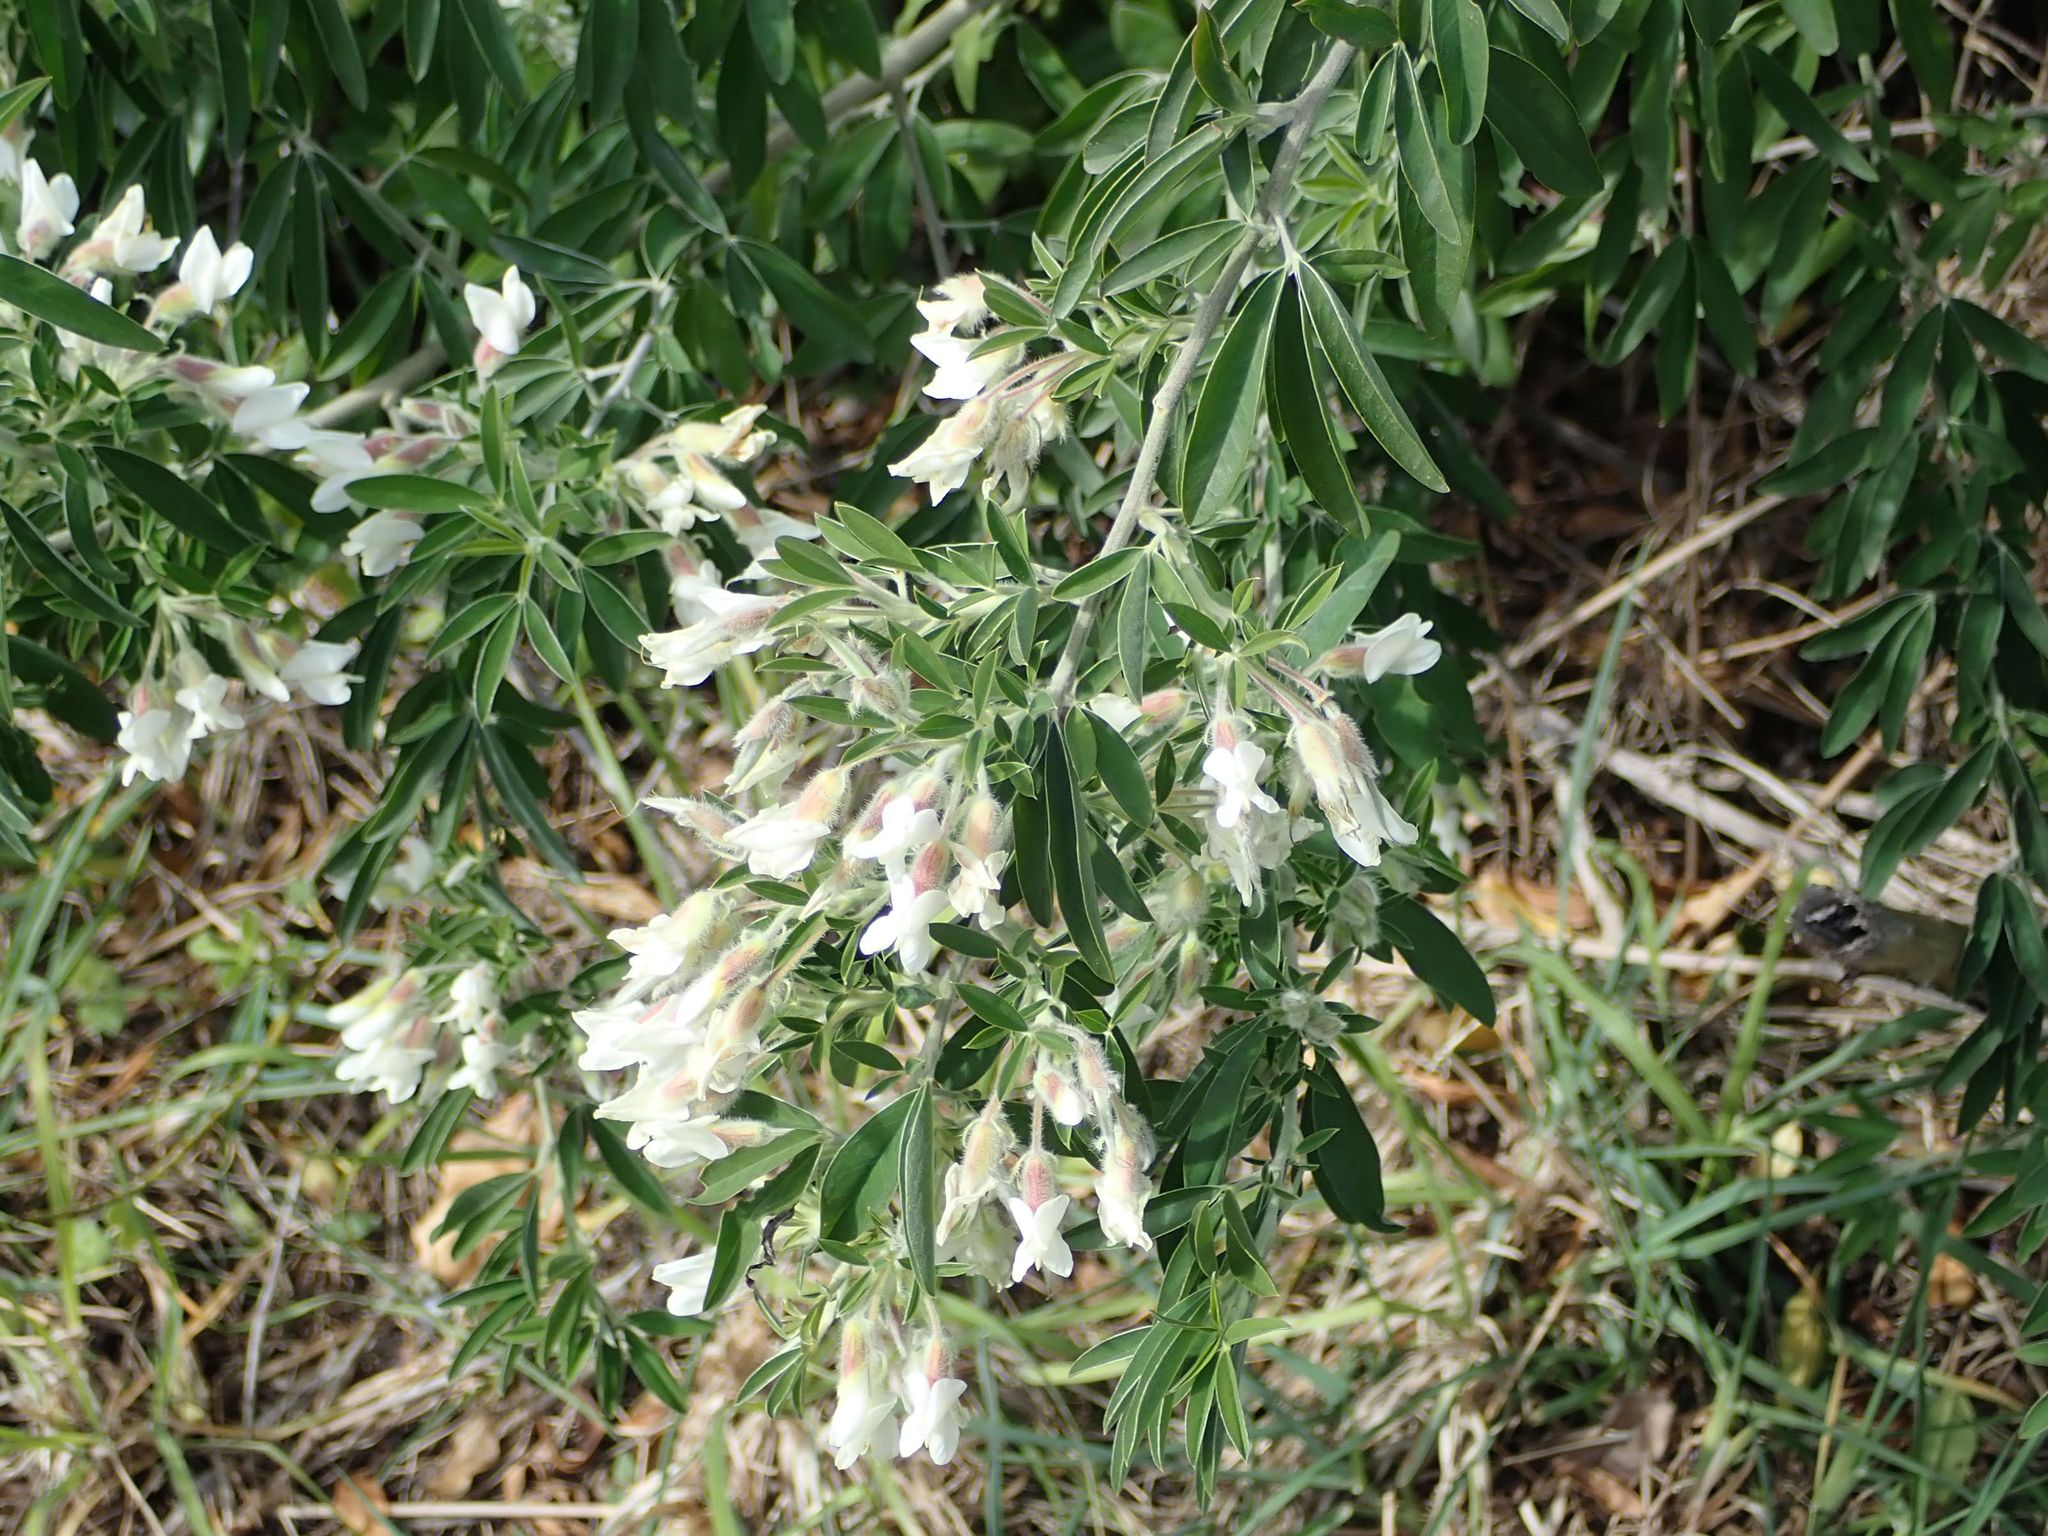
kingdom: Plantae
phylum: Tracheophyta
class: Magnoliopsida
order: Fabales
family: Fabaceae
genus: Chamaecytisus
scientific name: Chamaecytisus prolifer
